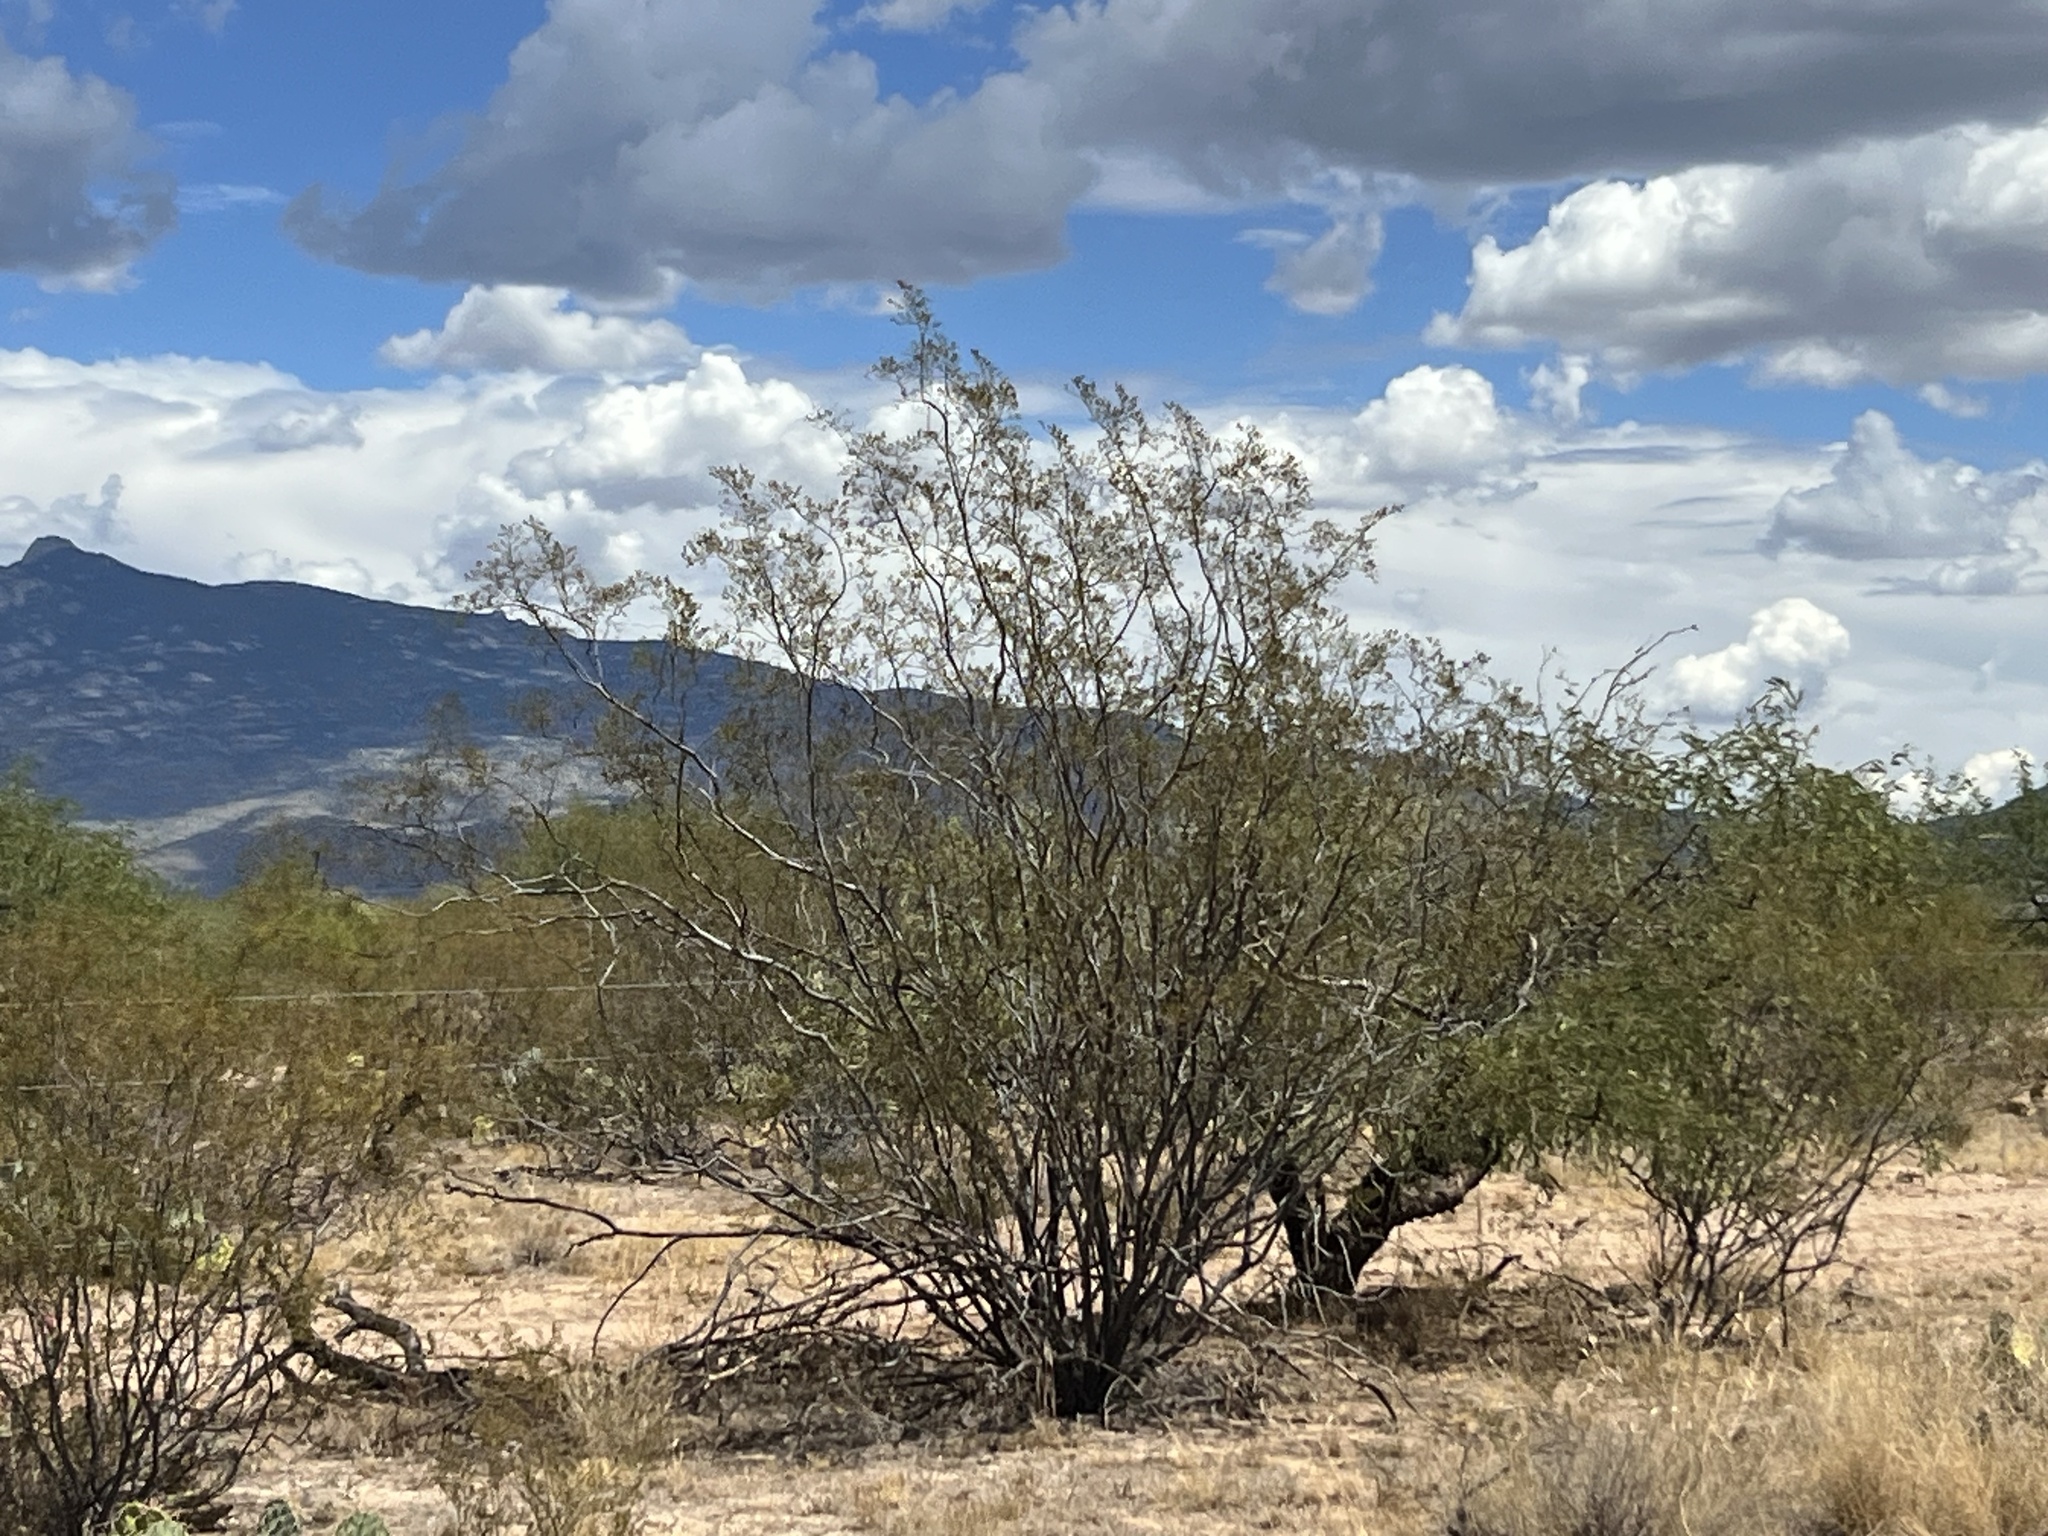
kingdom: Plantae
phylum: Tracheophyta
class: Magnoliopsida
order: Zygophyllales
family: Zygophyllaceae
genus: Larrea
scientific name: Larrea tridentata
